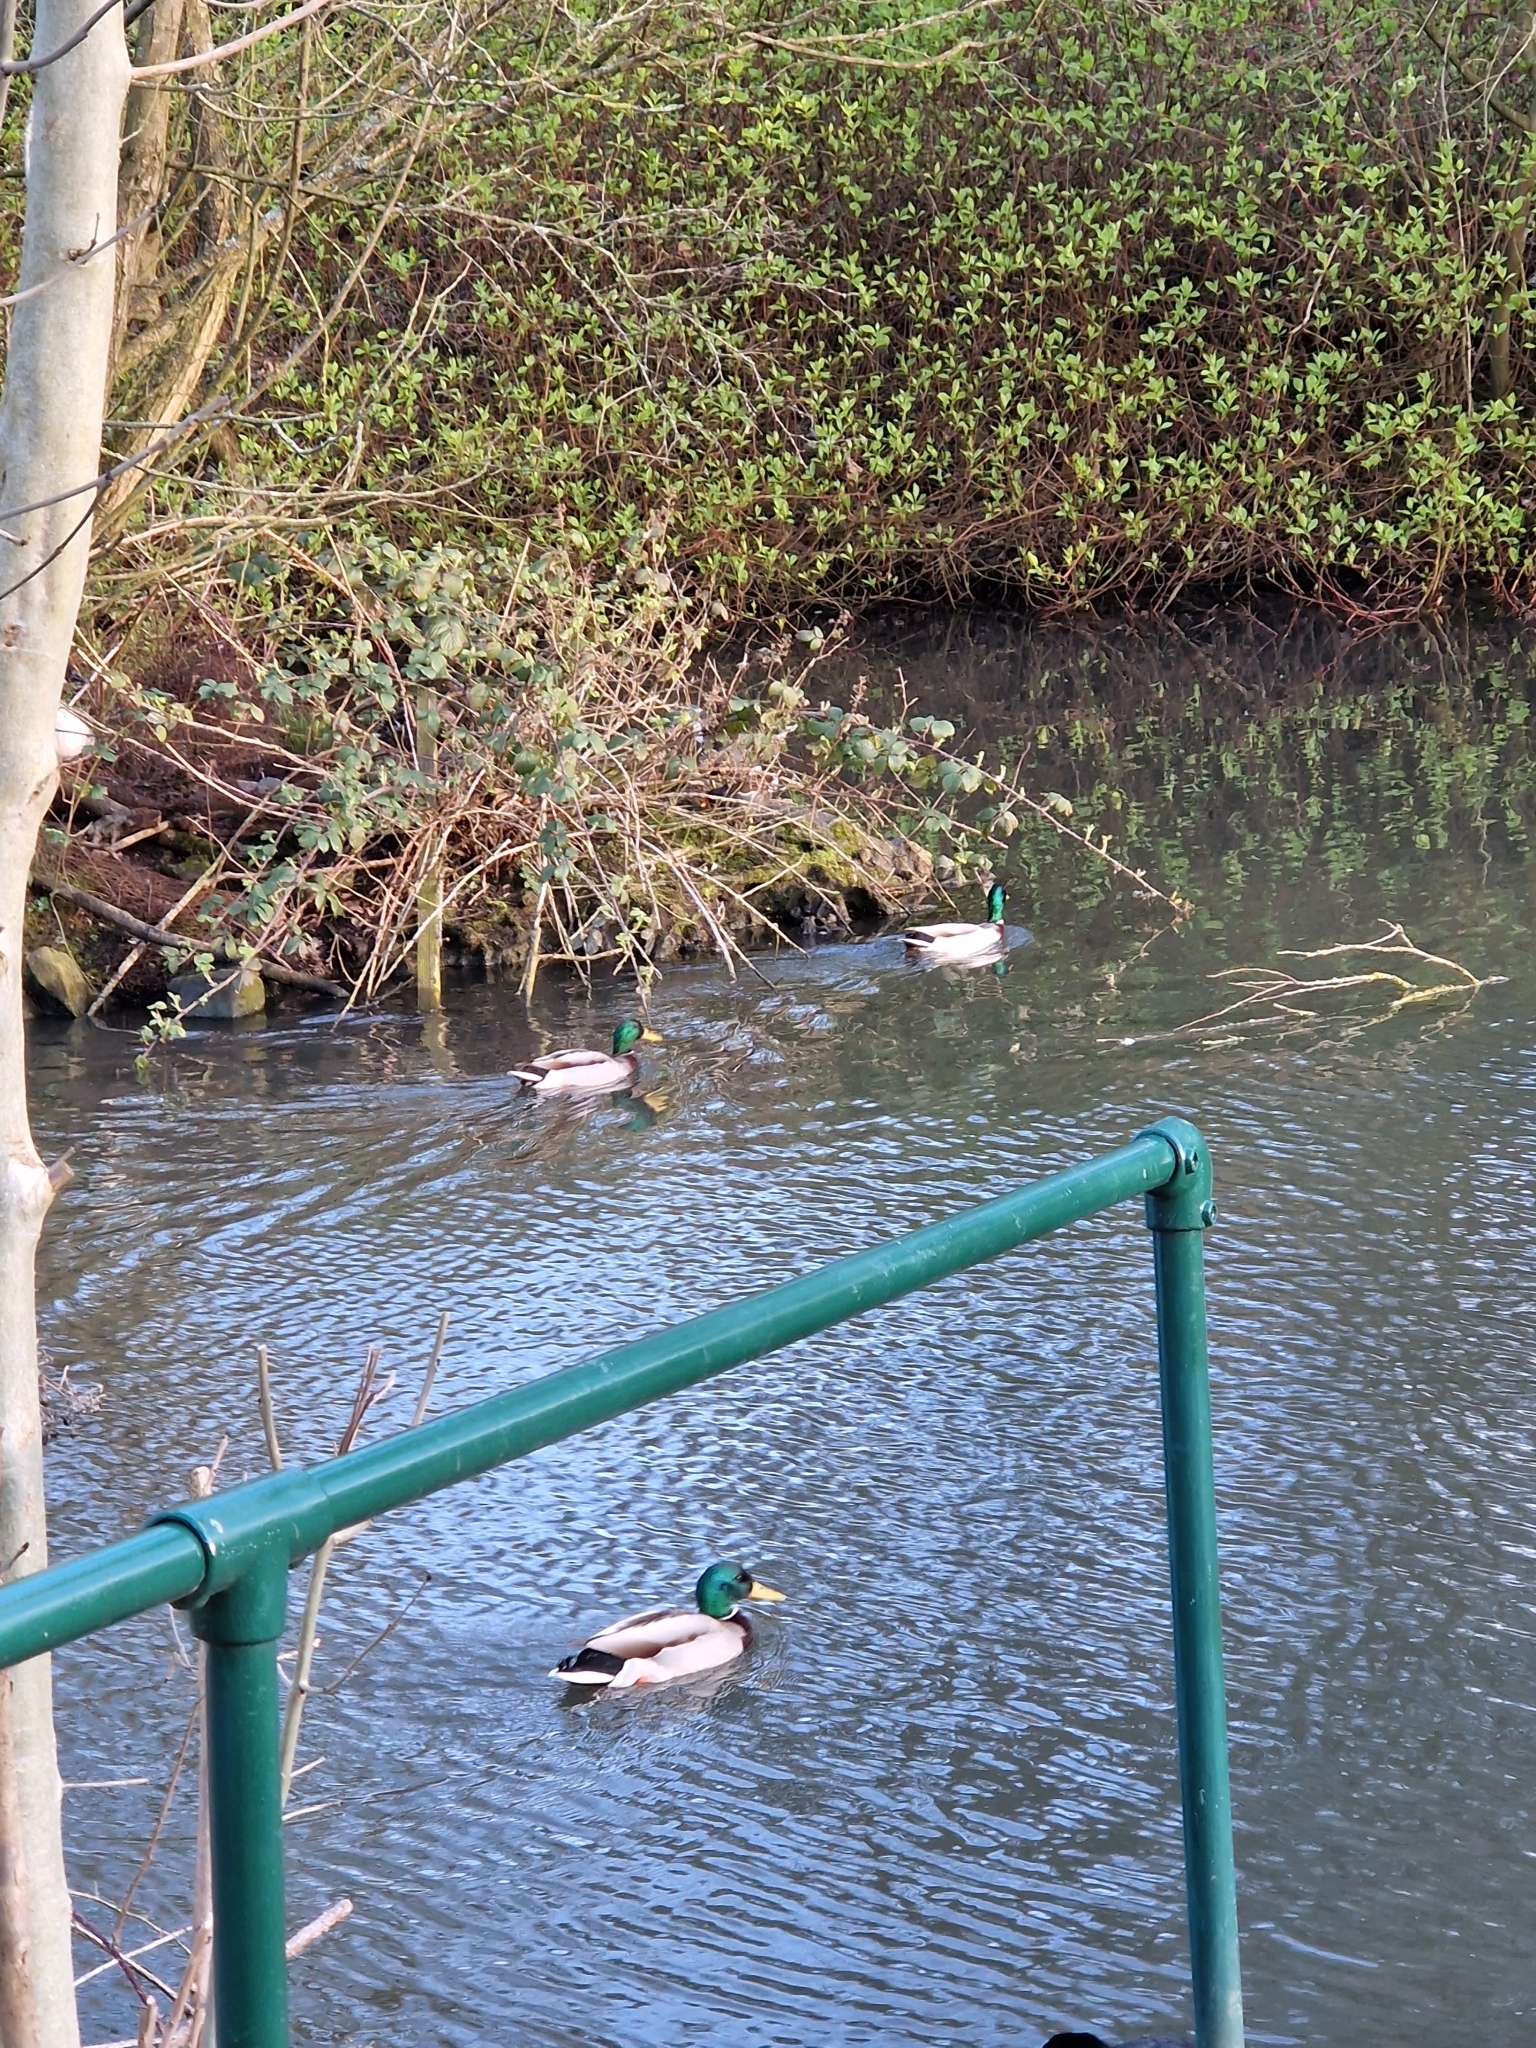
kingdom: Animalia
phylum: Chordata
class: Aves
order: Anseriformes
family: Anatidae
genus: Anas
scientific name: Anas platyrhynchos
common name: Mallard
